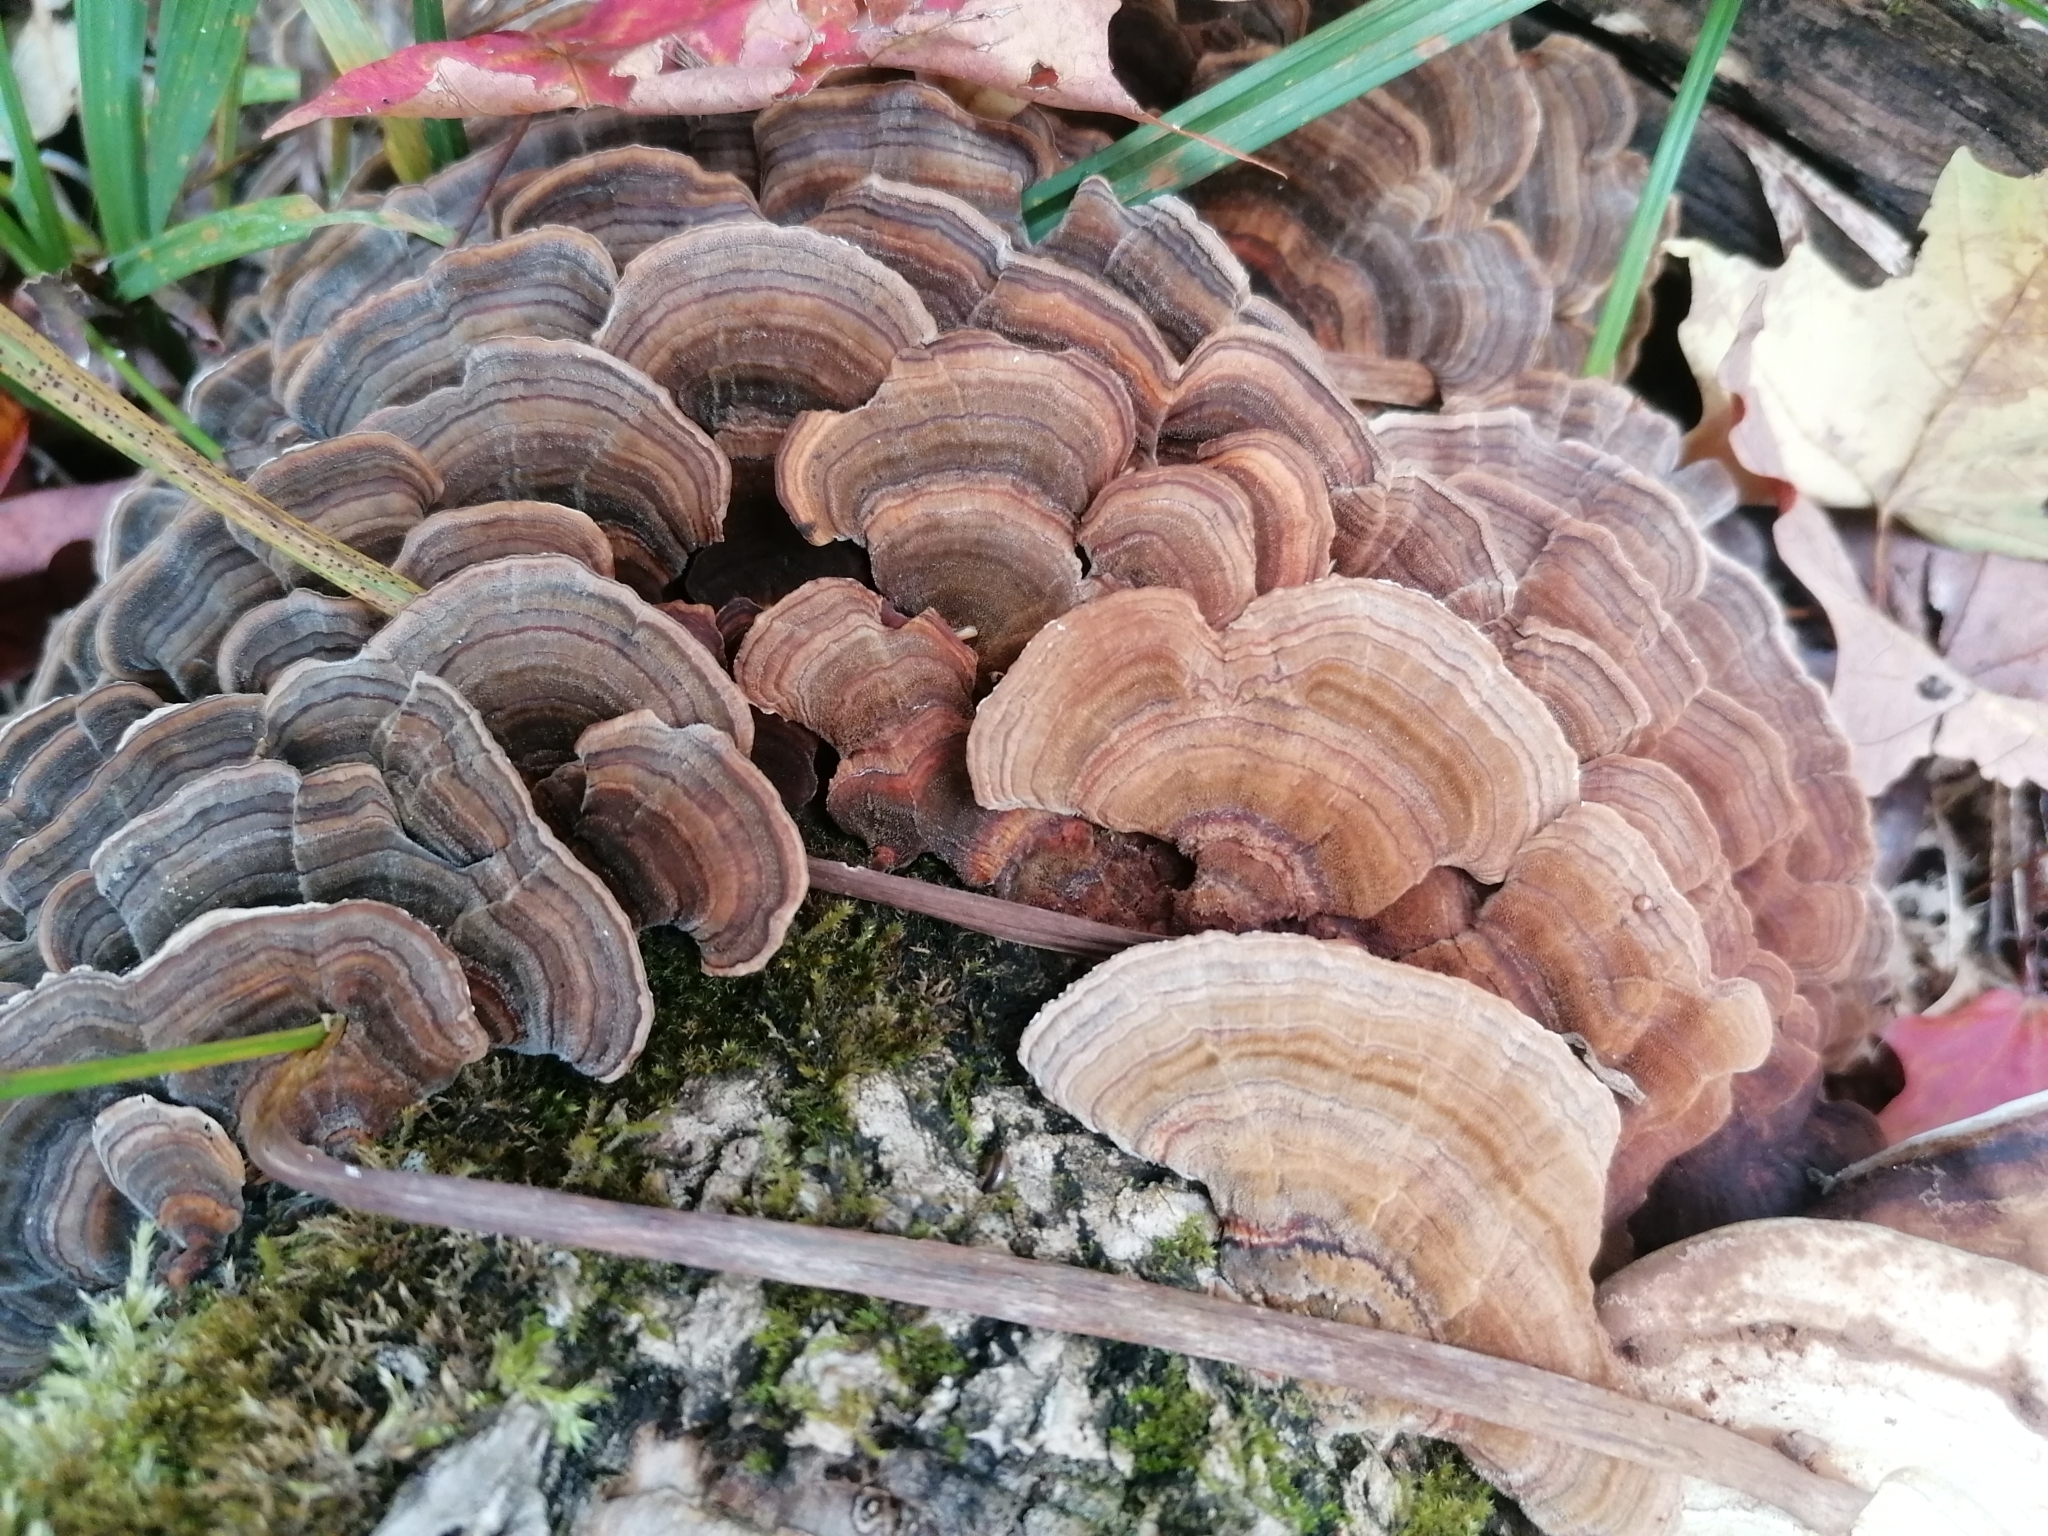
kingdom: Fungi
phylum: Basidiomycota
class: Agaricomycetes
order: Polyporales
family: Polyporaceae
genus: Trametes
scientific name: Trametes versicolor
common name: Turkeytail
